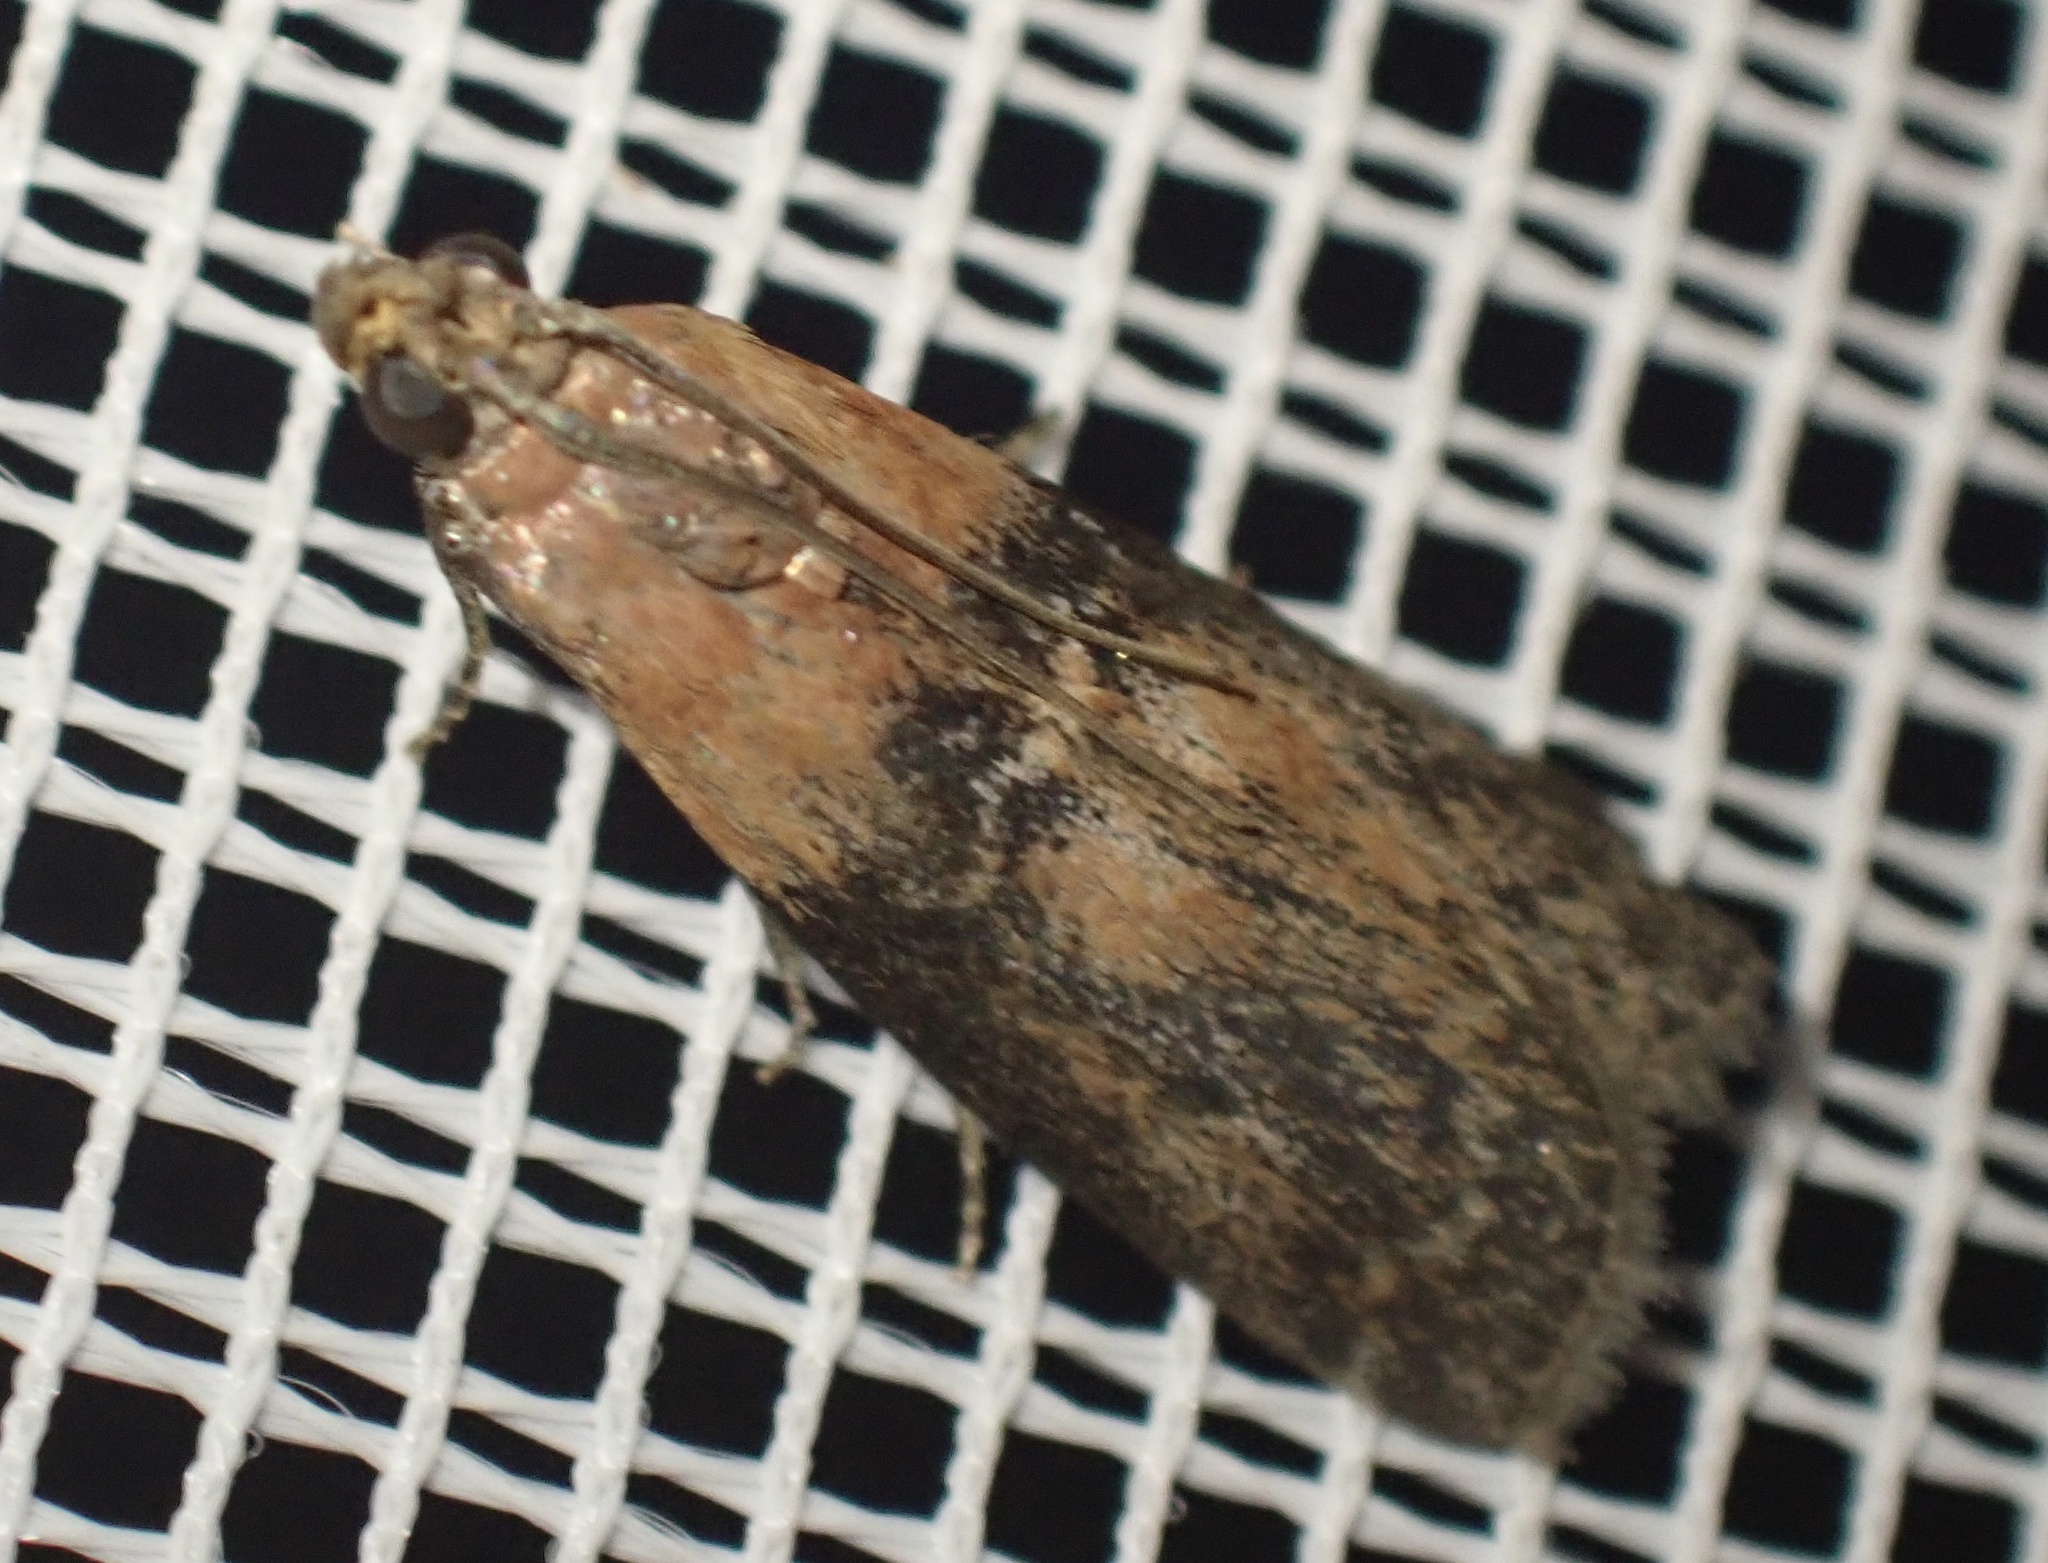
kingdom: Animalia
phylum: Arthropoda
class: Insecta
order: Lepidoptera
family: Pyralidae
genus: Sciota
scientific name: Sciota adelphella
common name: Willow knot-horn
